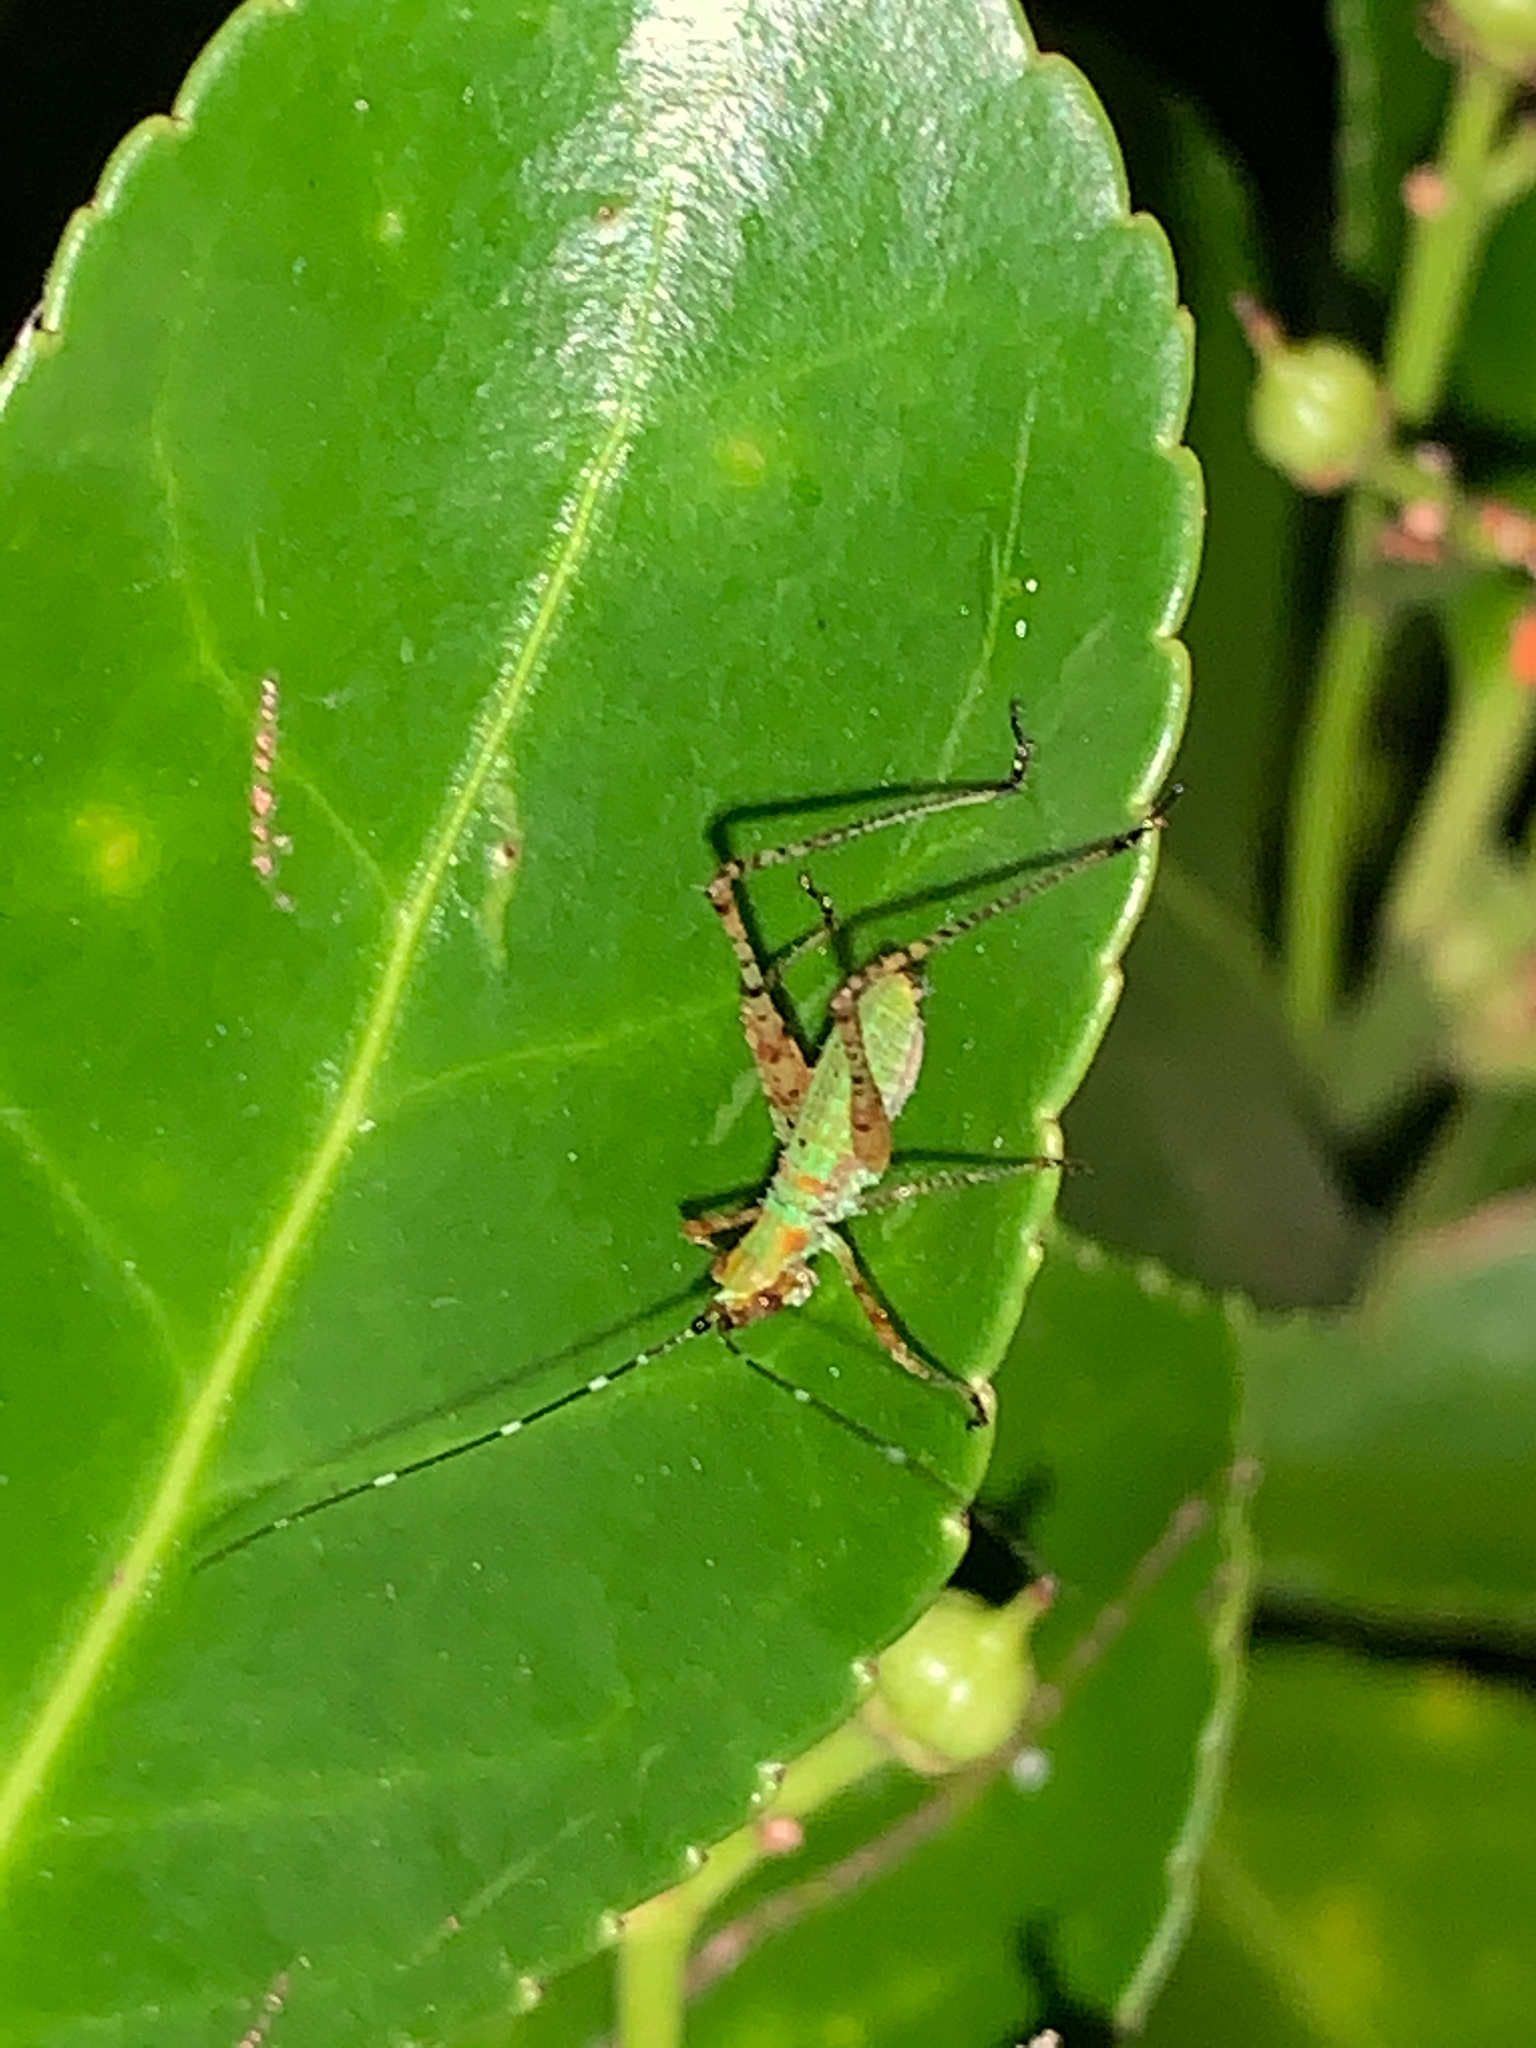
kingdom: Animalia
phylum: Arthropoda
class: Insecta
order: Orthoptera
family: Tettigoniidae
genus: Scudderia
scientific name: Scudderia
